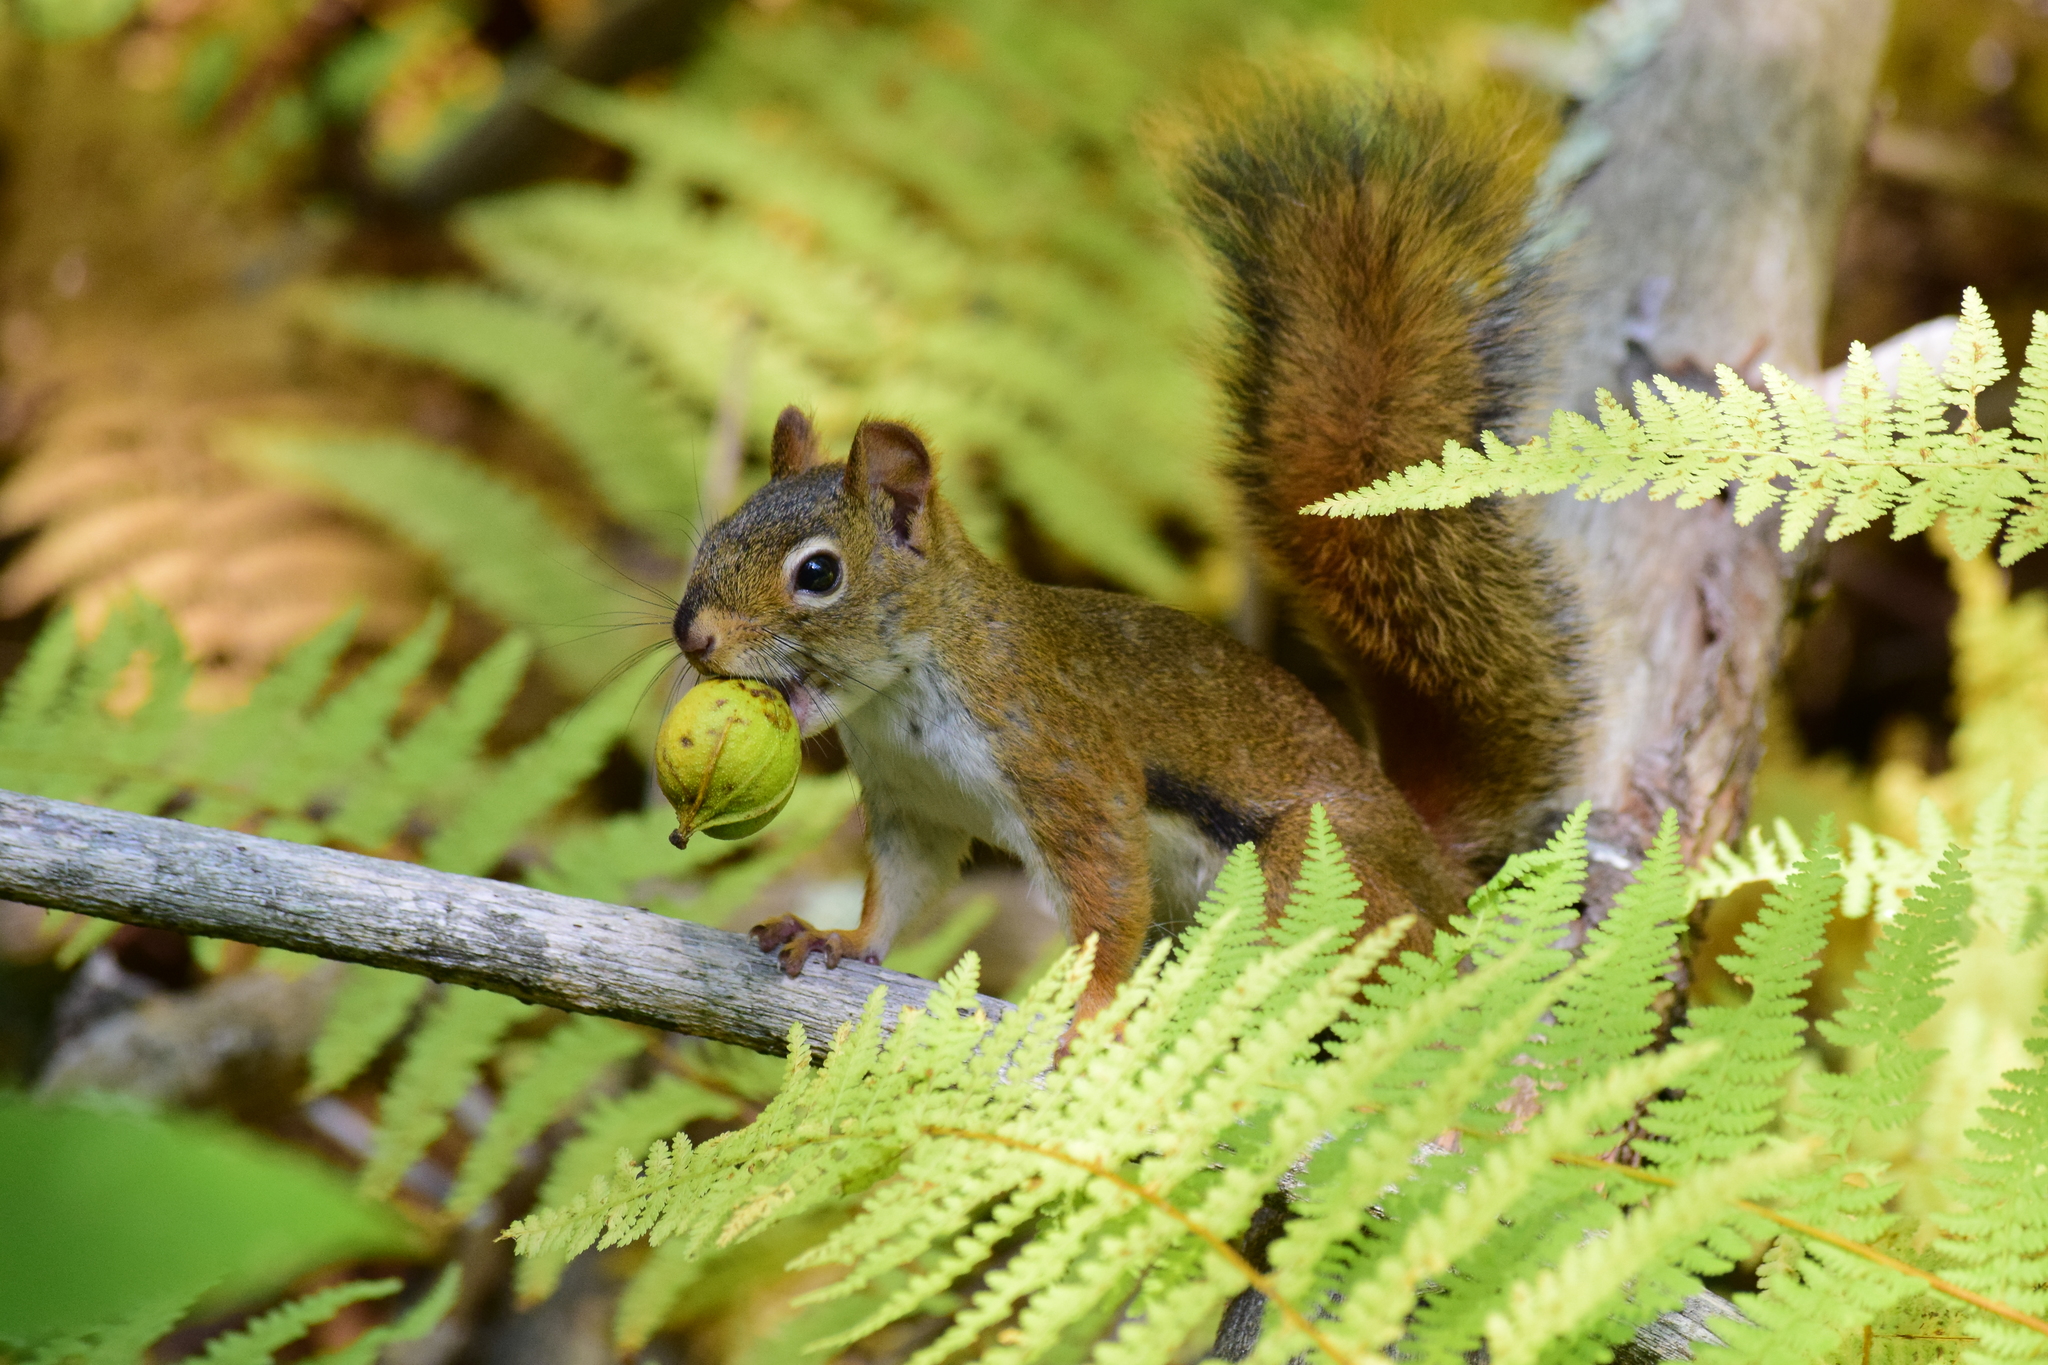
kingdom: Animalia
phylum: Chordata
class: Mammalia
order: Rodentia
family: Sciuridae
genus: Tamiasciurus
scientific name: Tamiasciurus hudsonicus
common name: Red squirrel
